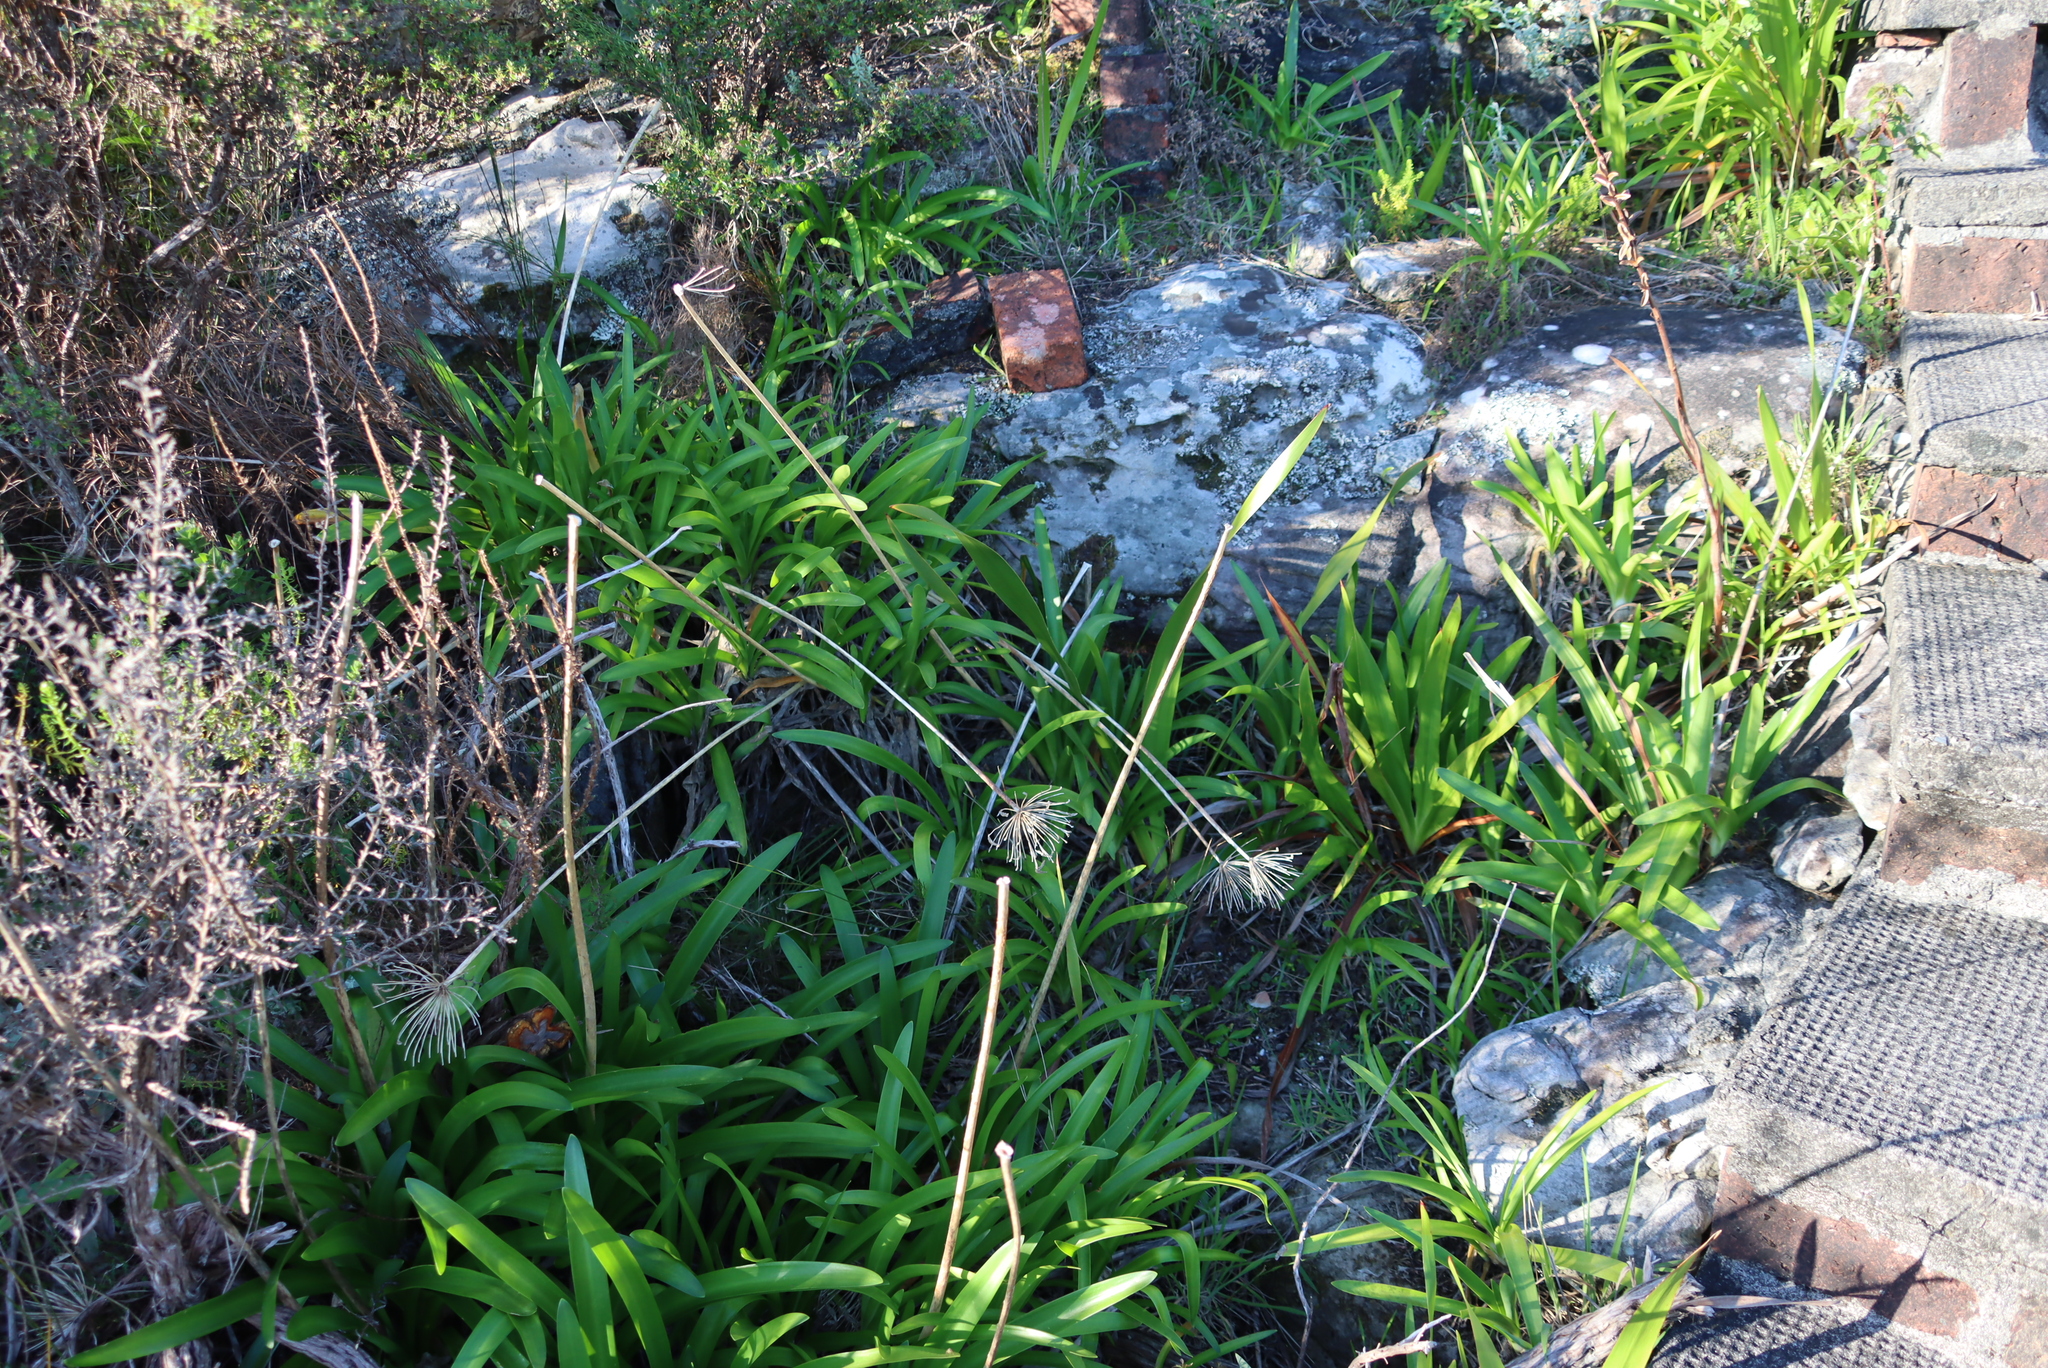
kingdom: Plantae
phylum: Tracheophyta
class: Liliopsida
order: Asparagales
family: Amaryllidaceae
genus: Agapanthus
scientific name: Agapanthus praecox
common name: African-lily
